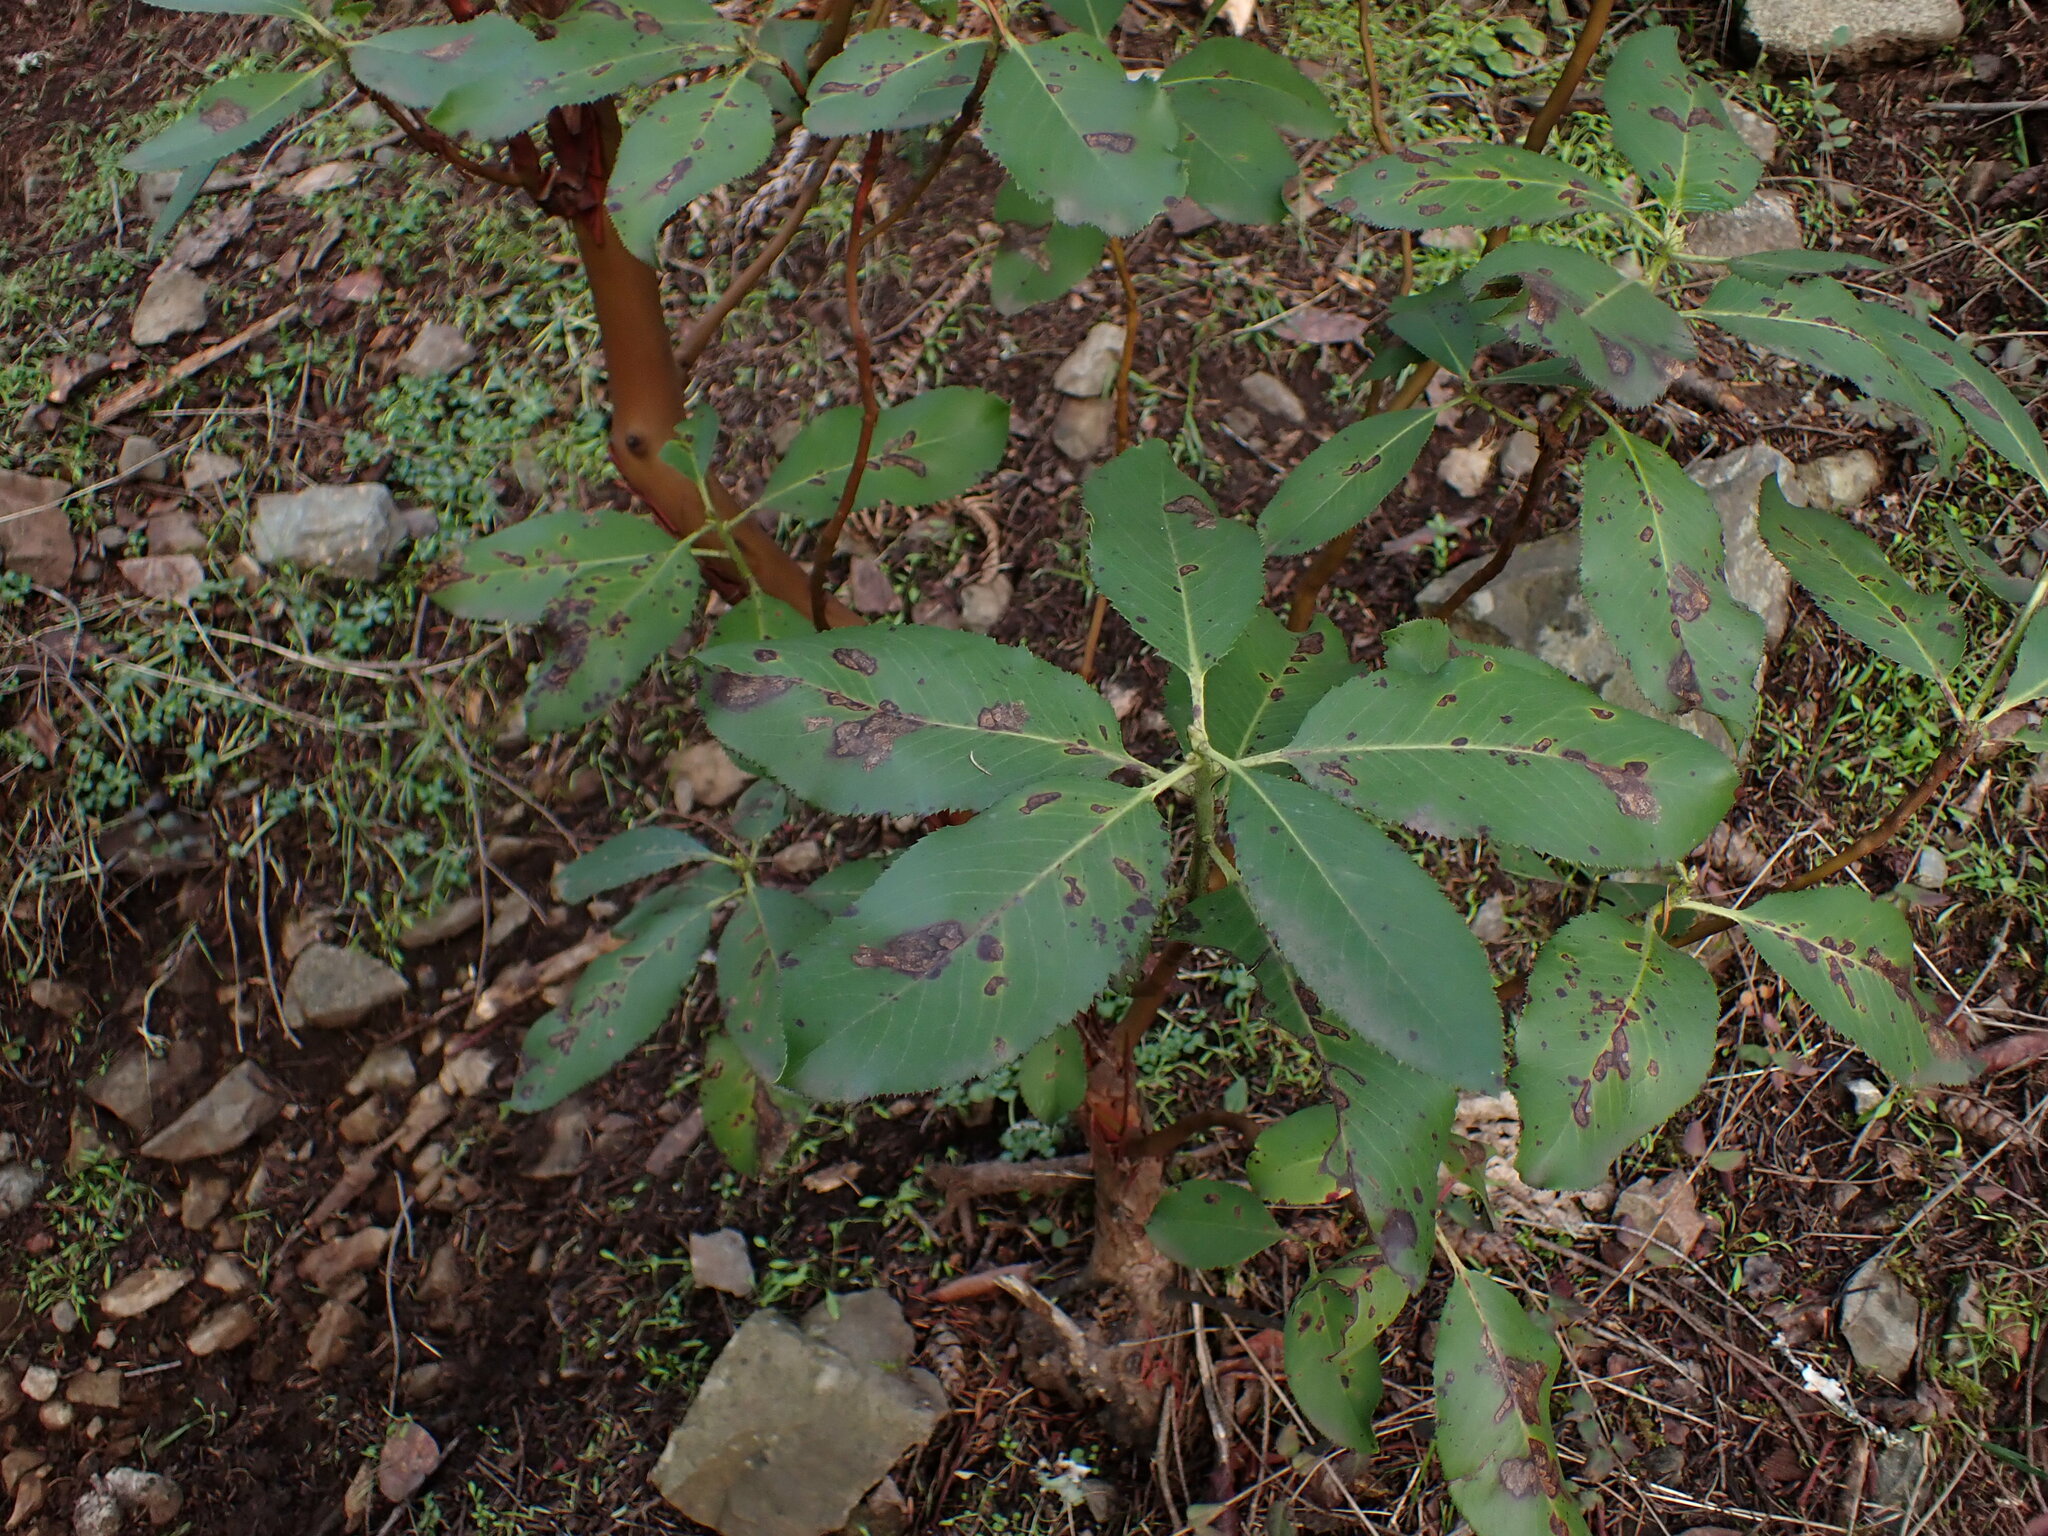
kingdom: Plantae
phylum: Tracheophyta
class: Magnoliopsida
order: Ericales
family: Ericaceae
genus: Arbutus
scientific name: Arbutus menziesii
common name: Pacific madrone
